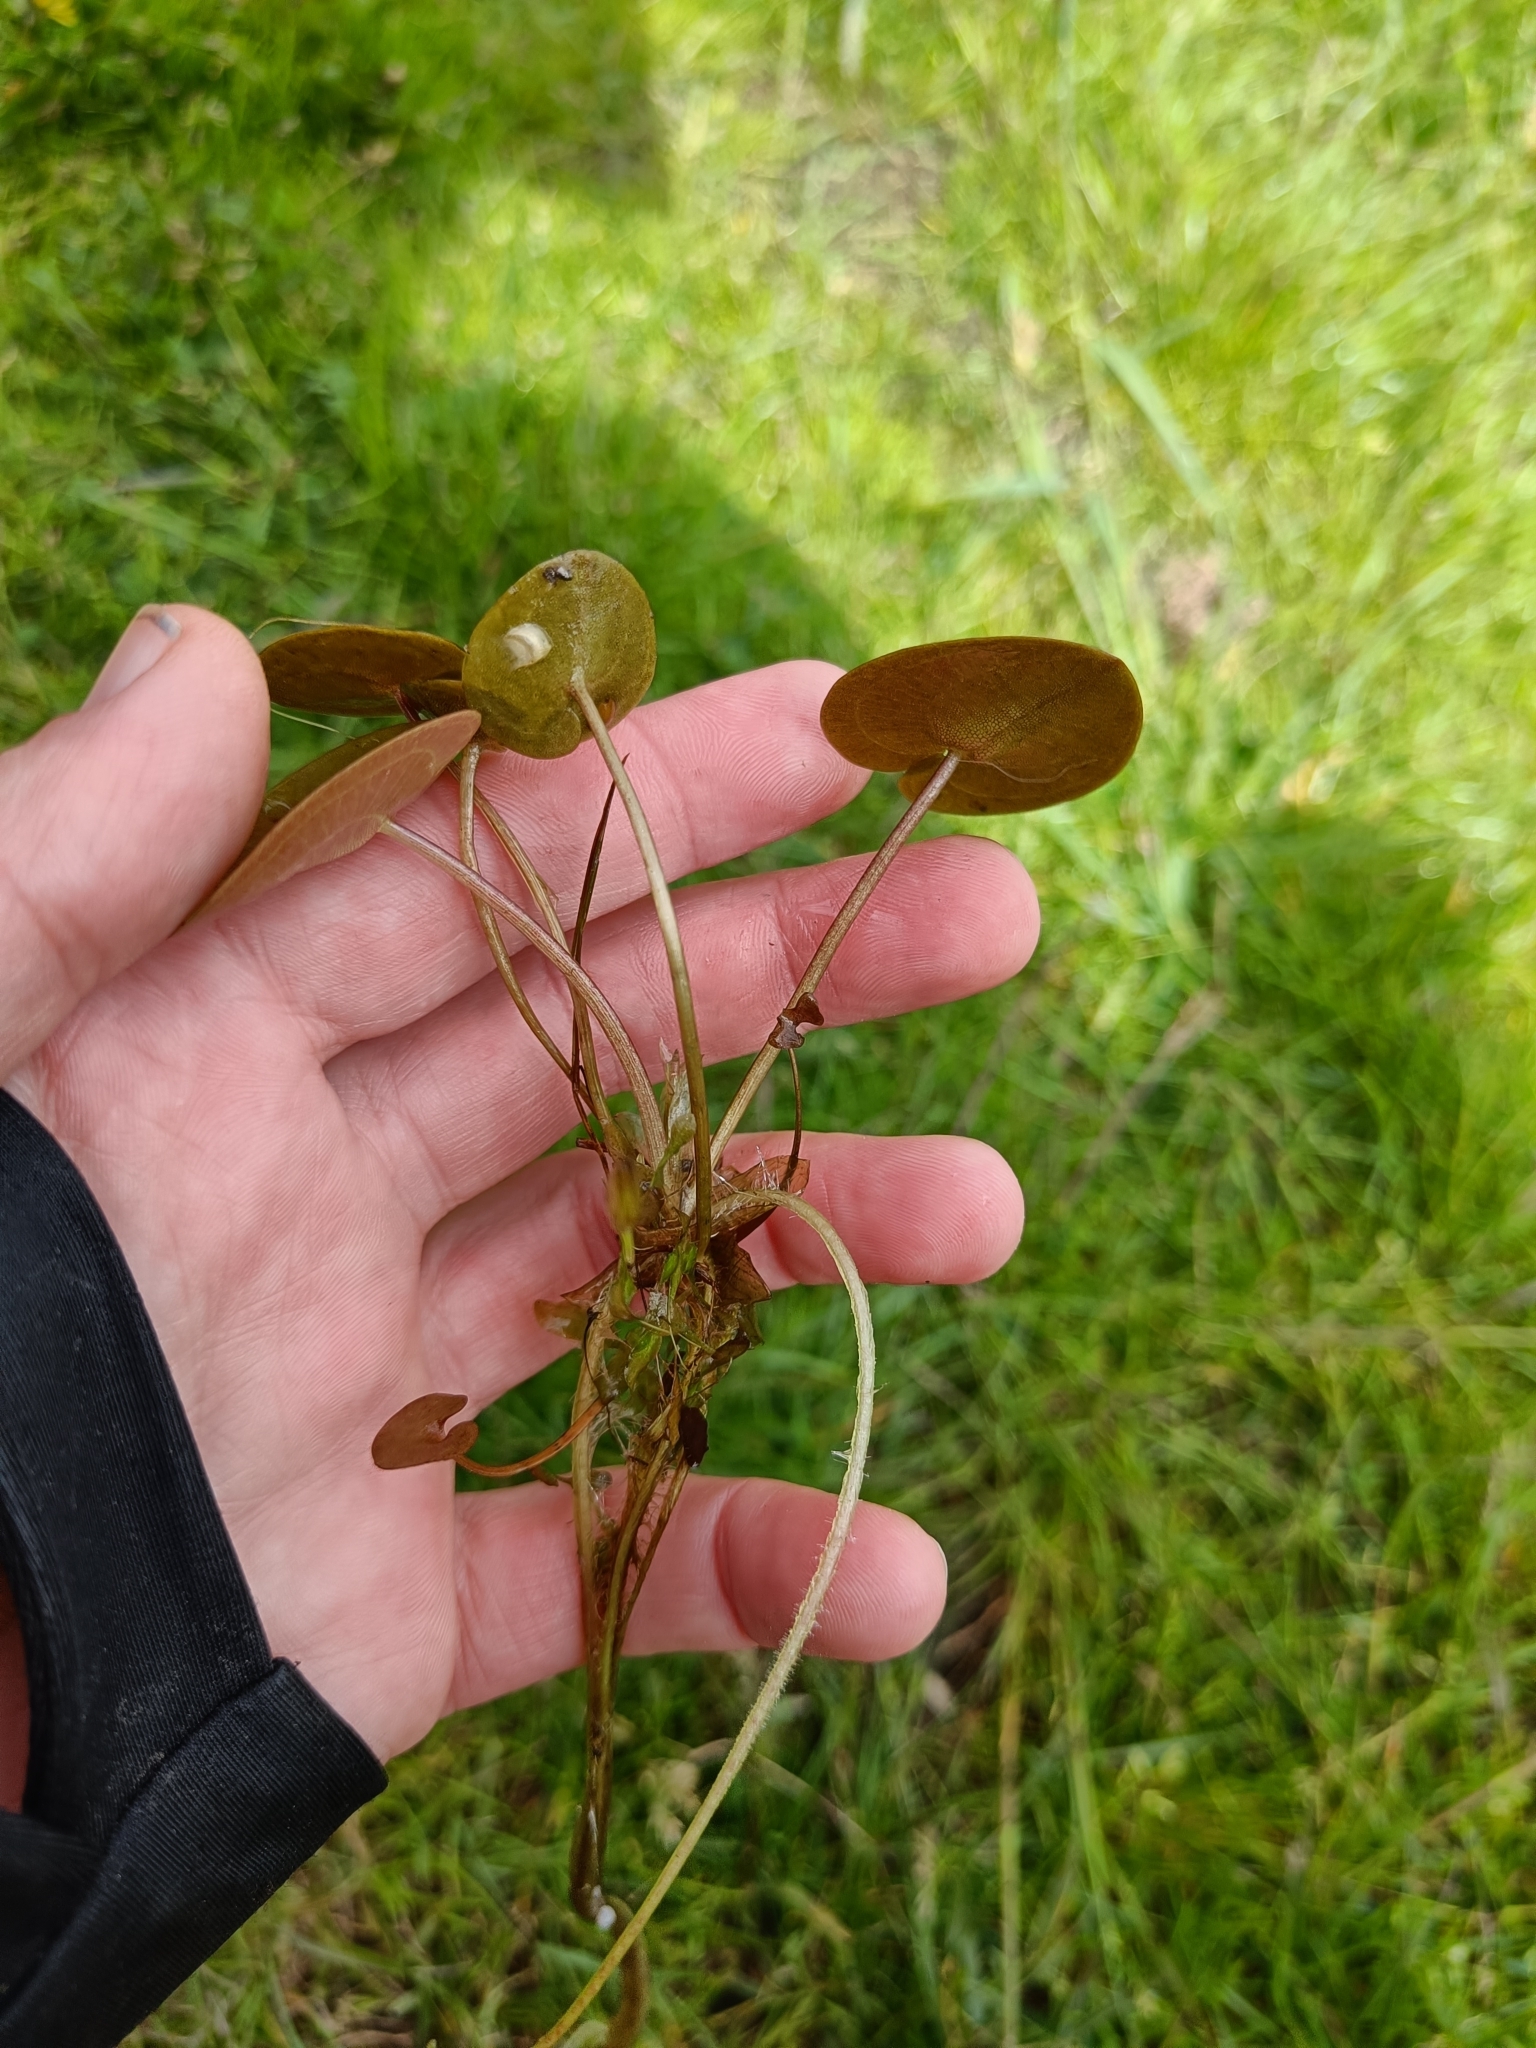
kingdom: Plantae
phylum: Tracheophyta
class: Liliopsida
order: Alismatales
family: Hydrocharitaceae
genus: Hydrocharis
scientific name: Hydrocharis morsus-ranae
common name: Frogbit
